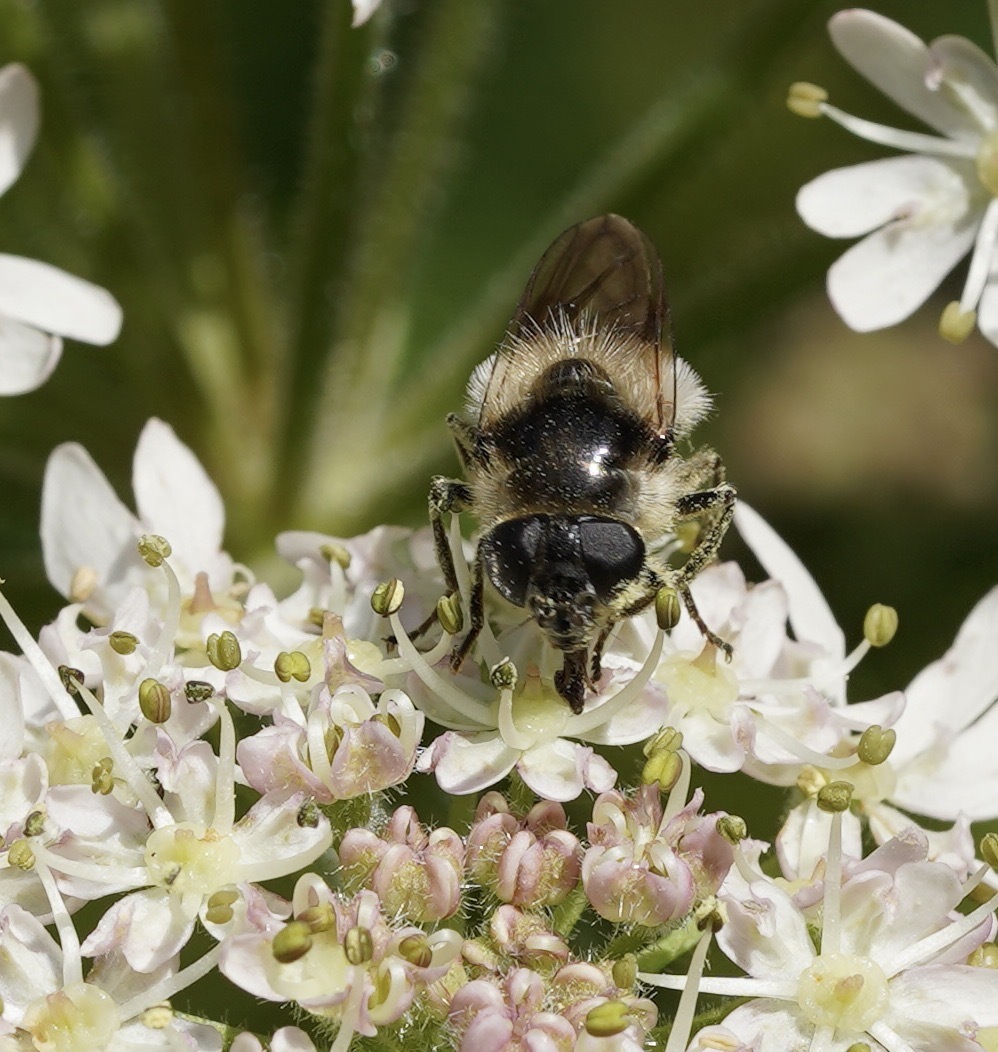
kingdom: Animalia
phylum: Arthropoda
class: Insecta
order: Diptera
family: Syrphidae
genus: Cheilosia
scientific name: Cheilosia illustrata
